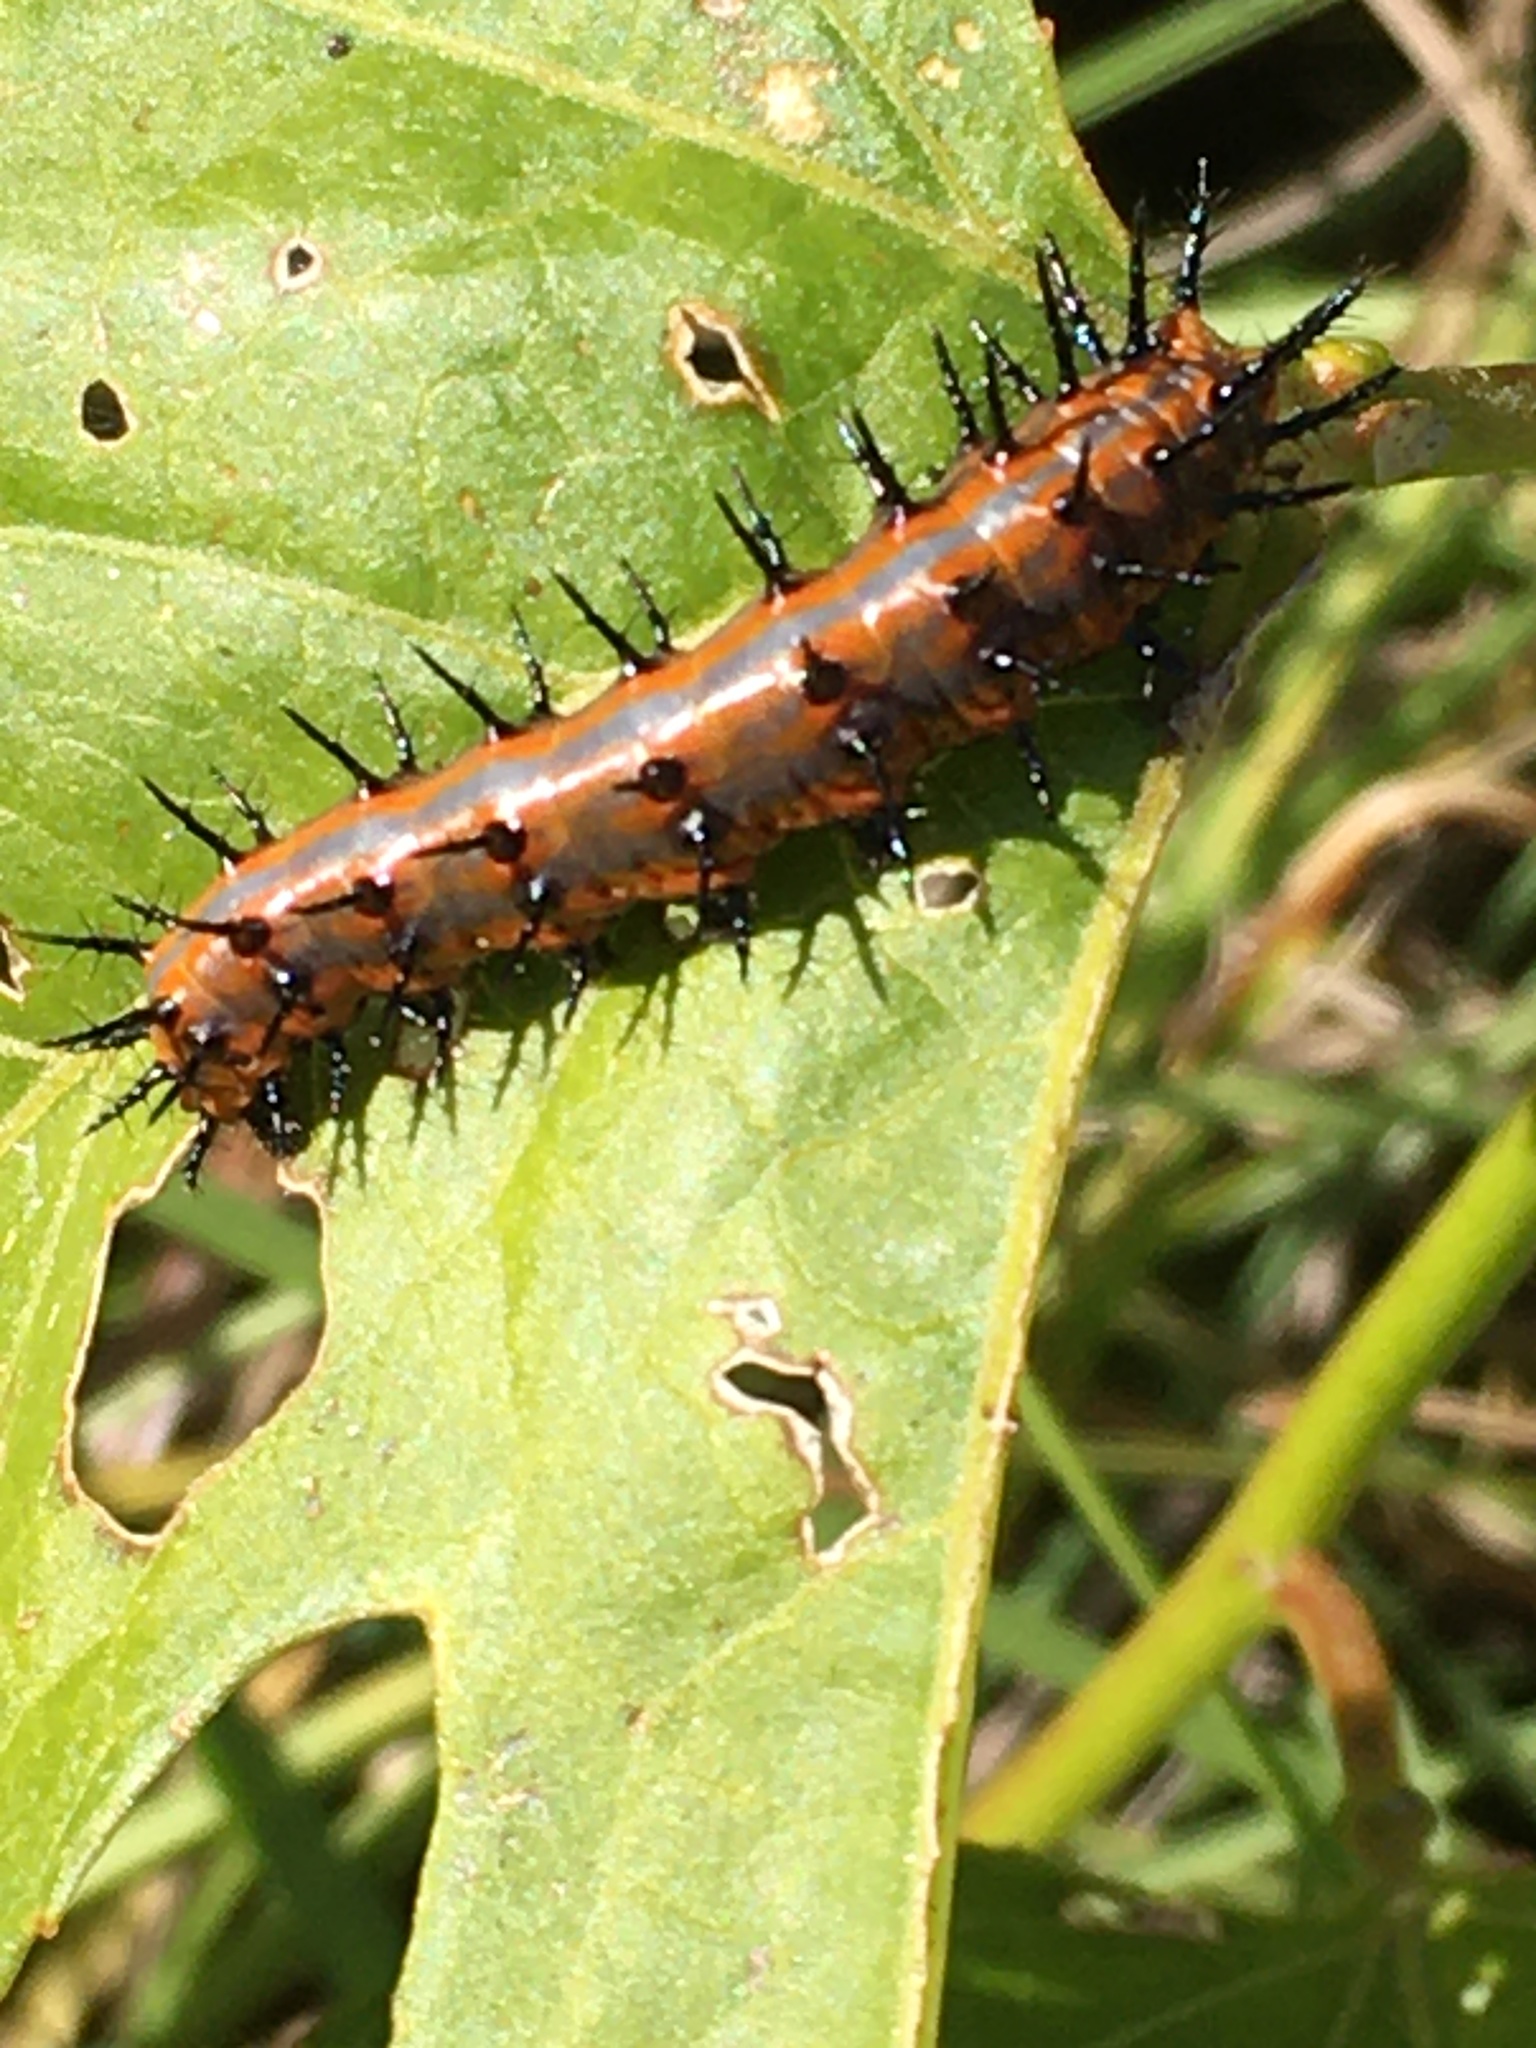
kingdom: Animalia
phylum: Arthropoda
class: Insecta
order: Lepidoptera
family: Nymphalidae
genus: Dione
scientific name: Dione vanillae
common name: Gulf fritillary
